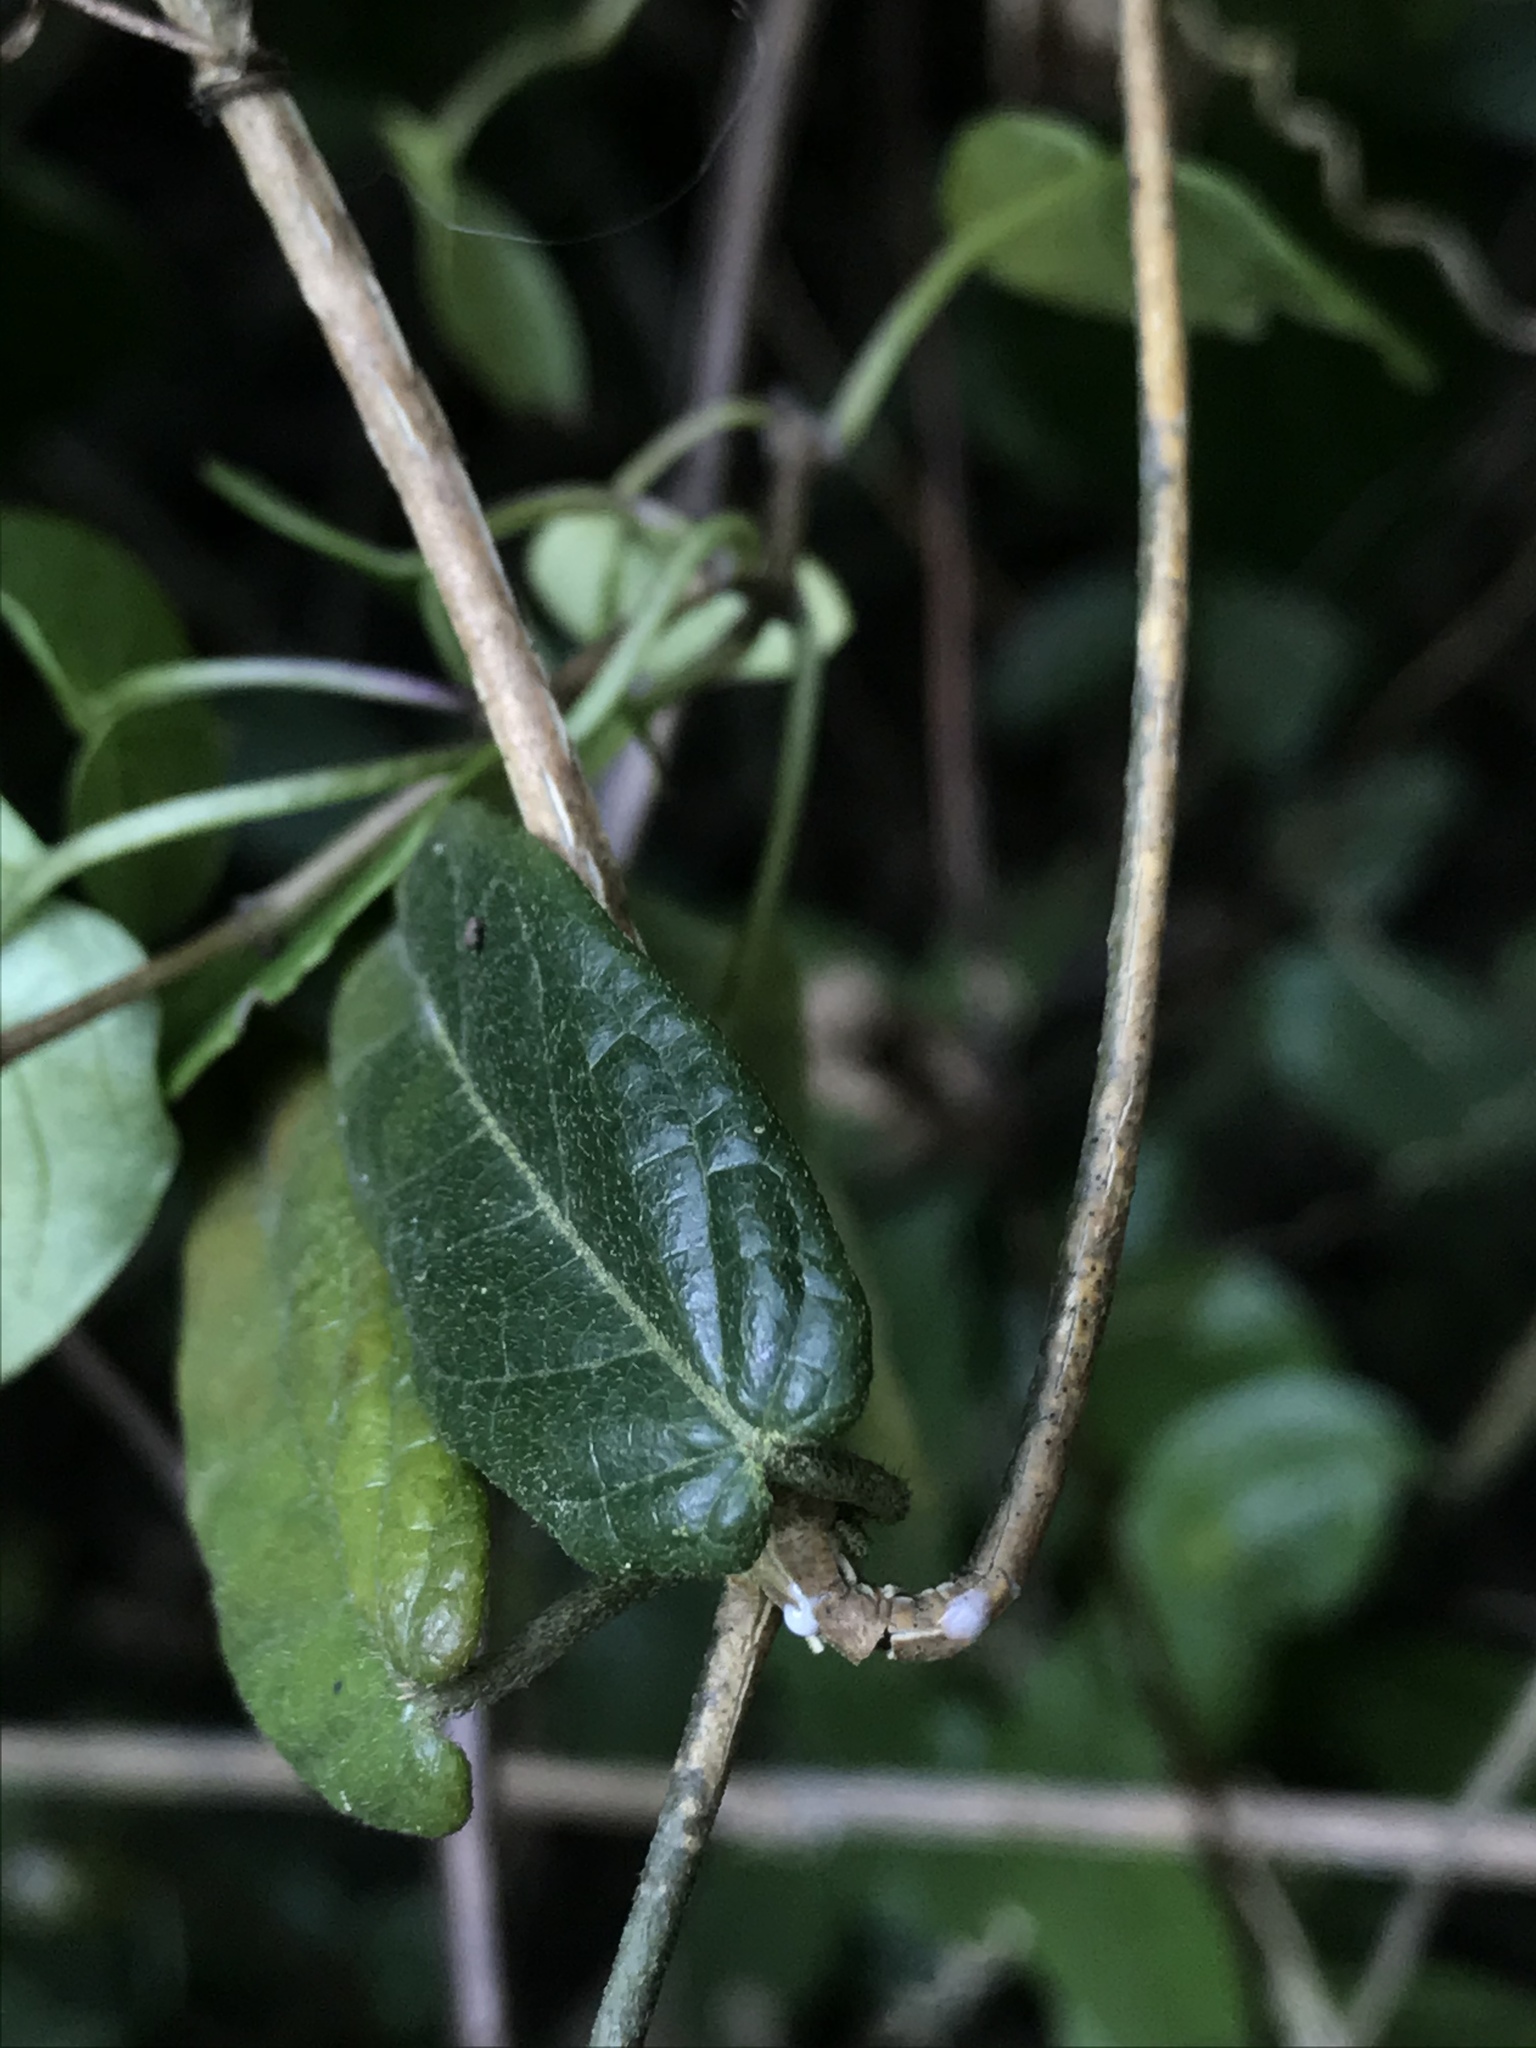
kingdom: Plantae
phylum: Tracheophyta
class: Magnoliopsida
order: Gentianales
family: Apocynaceae
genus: Matelea
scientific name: Matelea mutisiana
